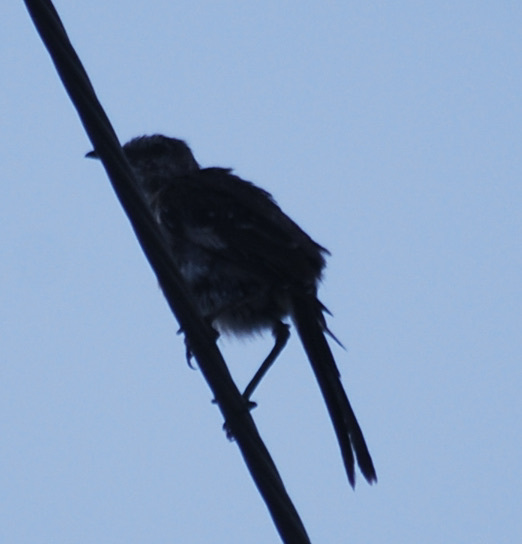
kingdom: Animalia
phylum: Chordata
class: Aves
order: Passeriformes
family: Mimidae
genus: Mimus
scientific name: Mimus polyglottos
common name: Northern mockingbird
